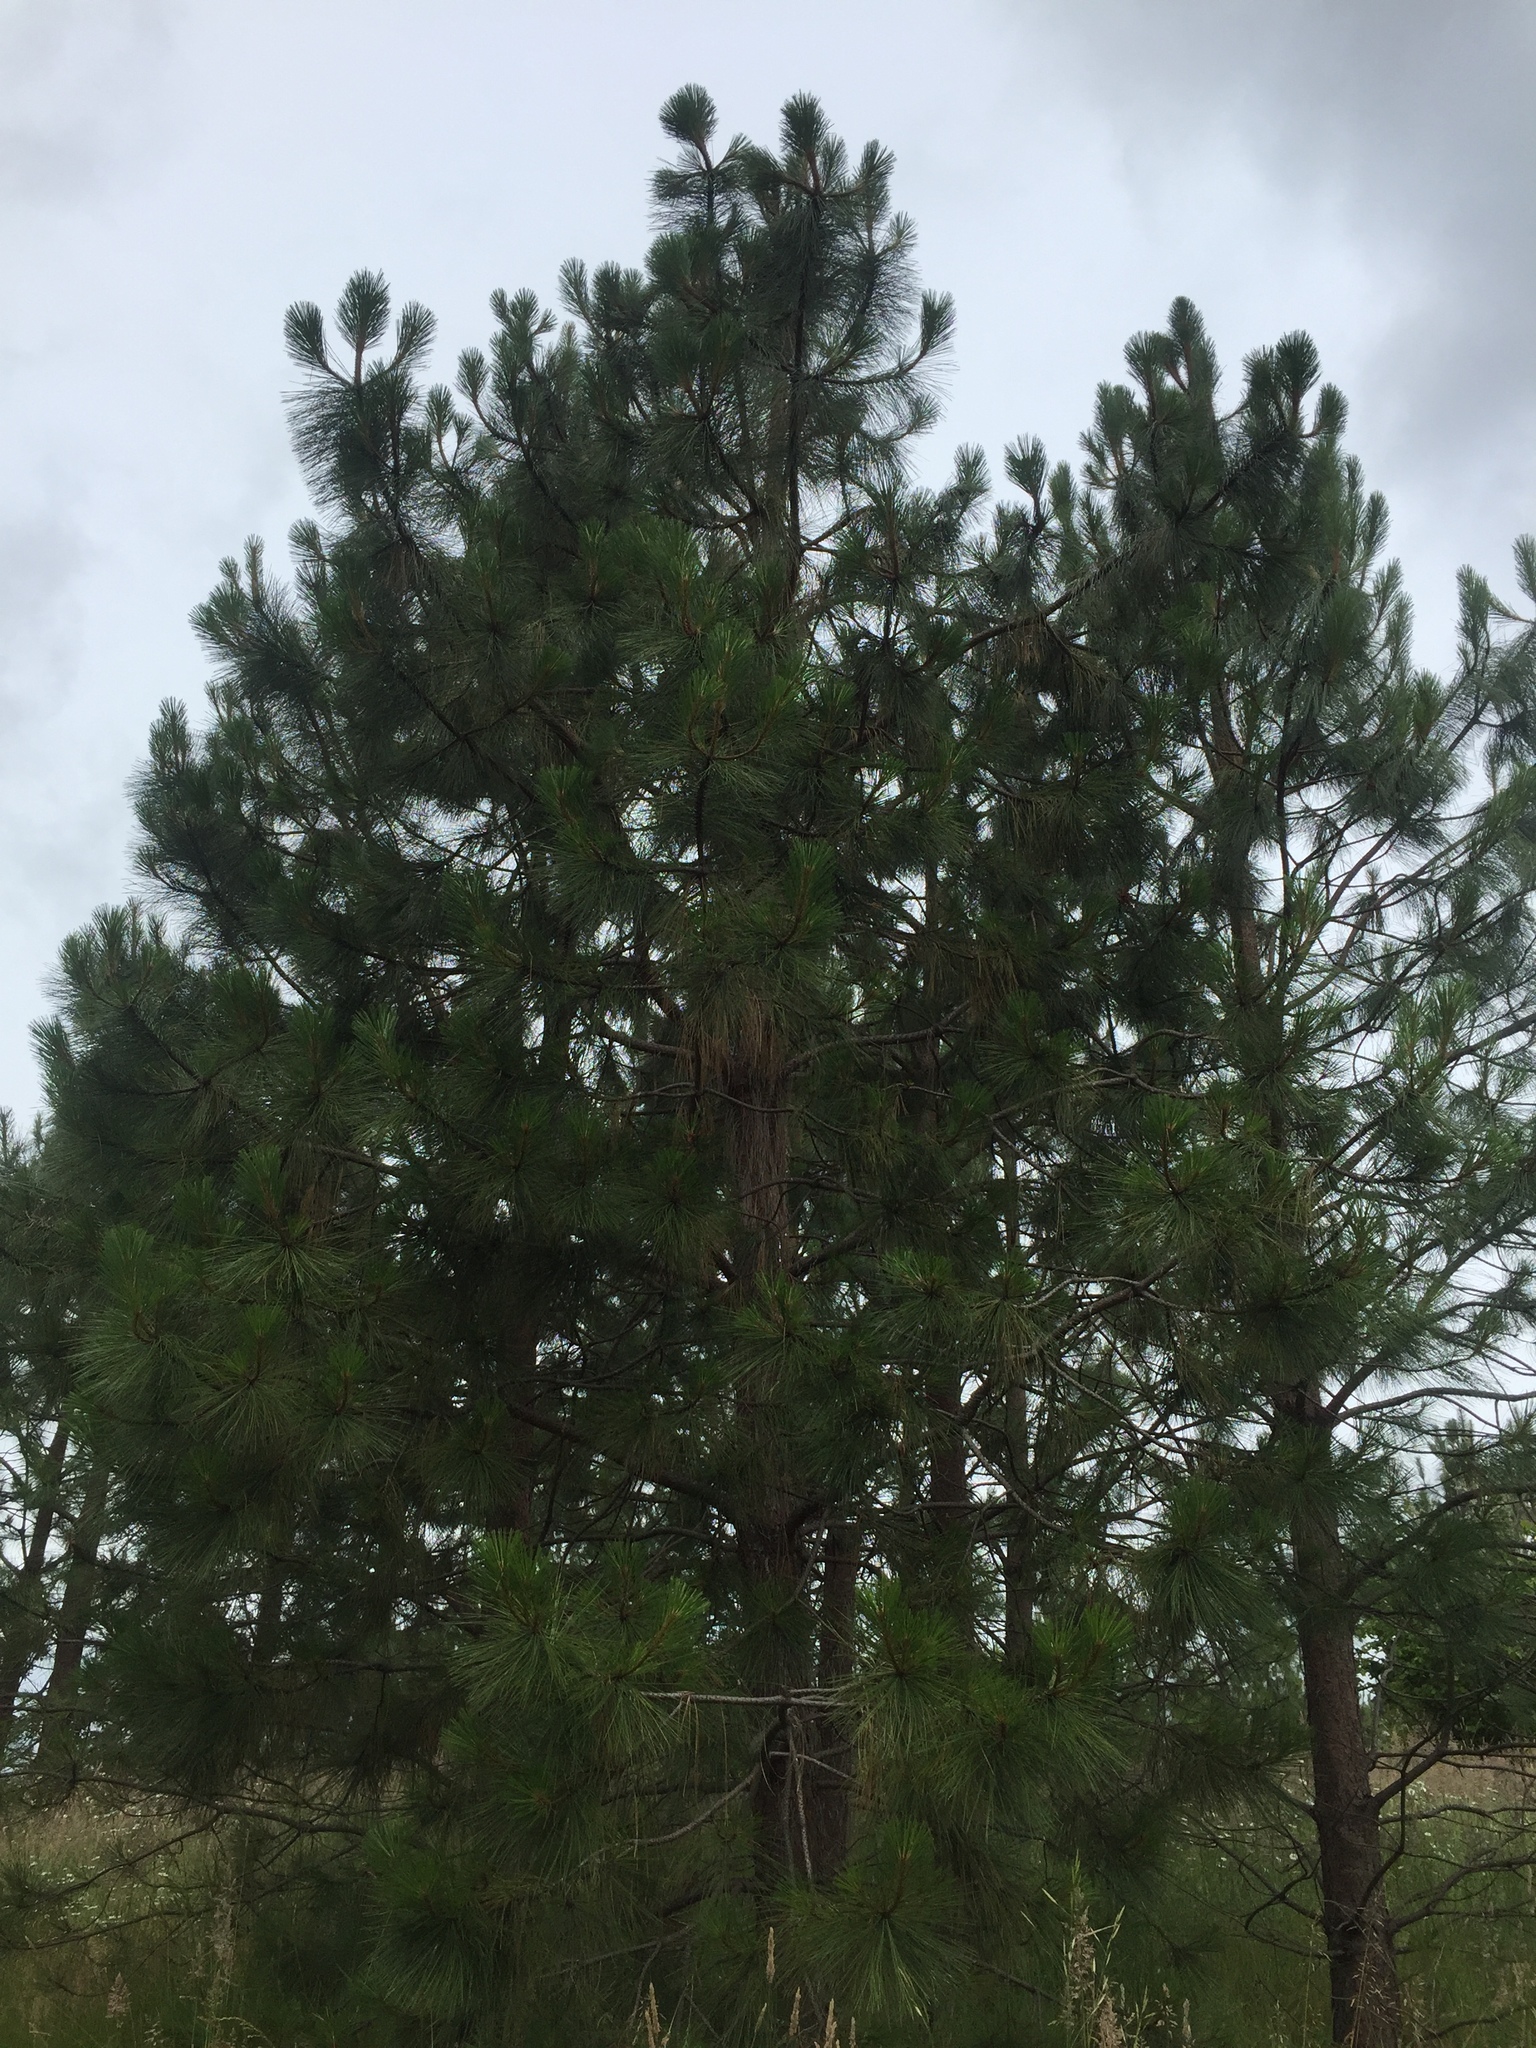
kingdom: Plantae
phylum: Tracheophyta
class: Pinopsida
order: Pinales
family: Pinaceae
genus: Pinus
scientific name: Pinus ponderosa
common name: Western yellow-pine
